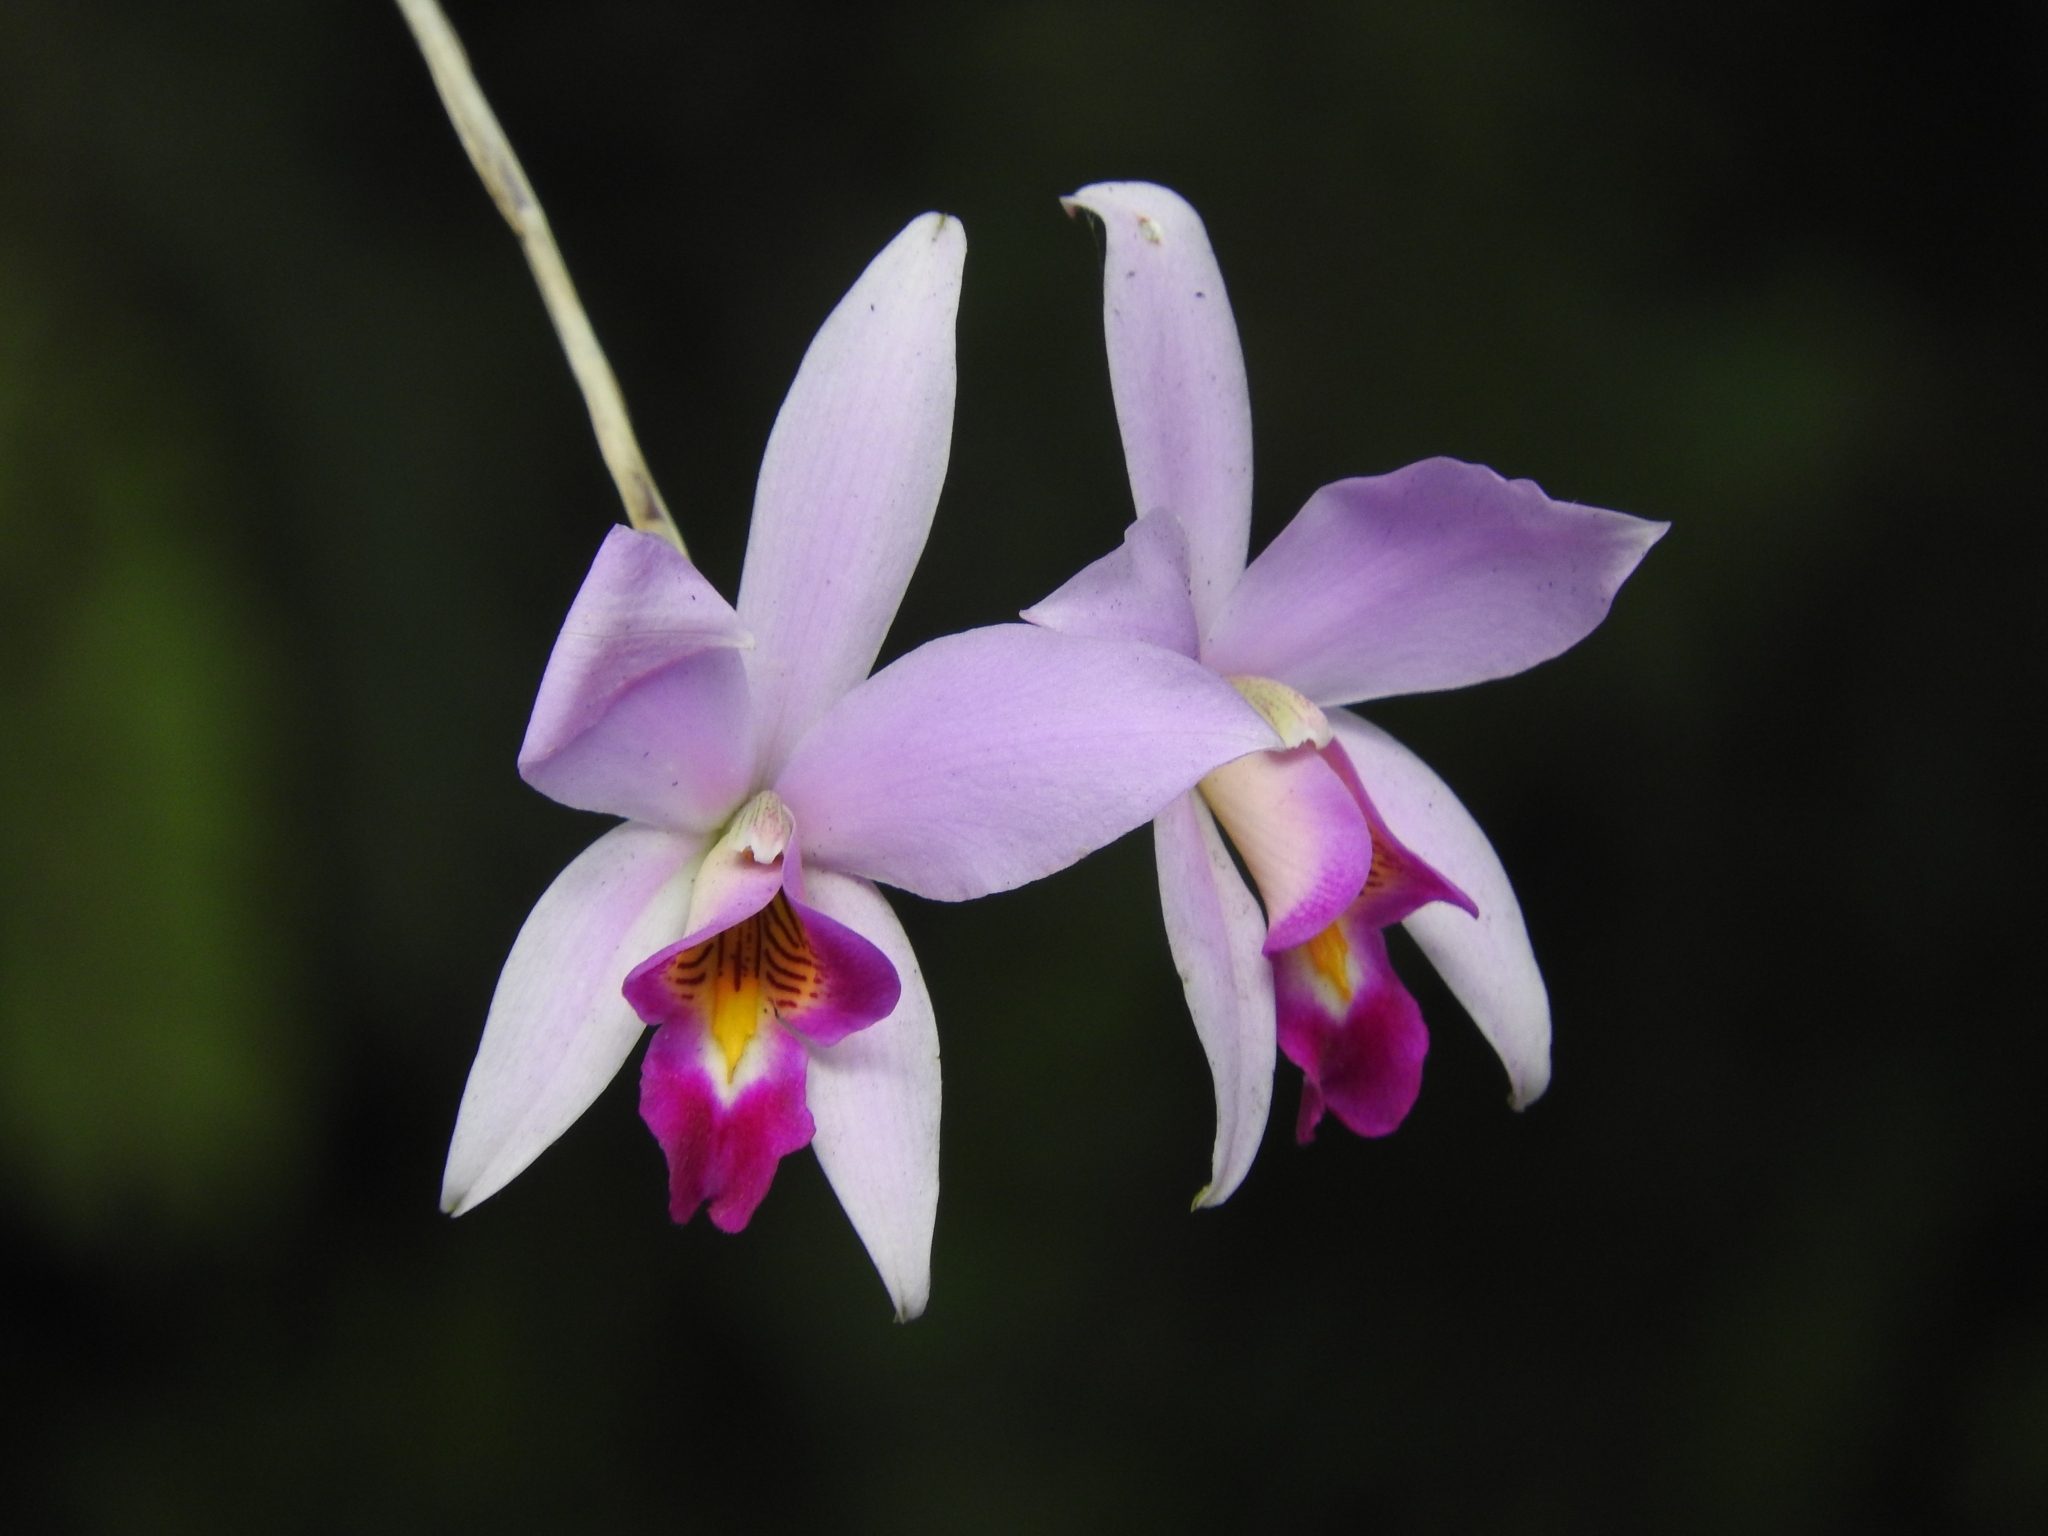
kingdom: Plantae
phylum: Tracheophyta
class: Liliopsida
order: Asparagales
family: Orchidaceae
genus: Laelia
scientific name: Laelia anceps
